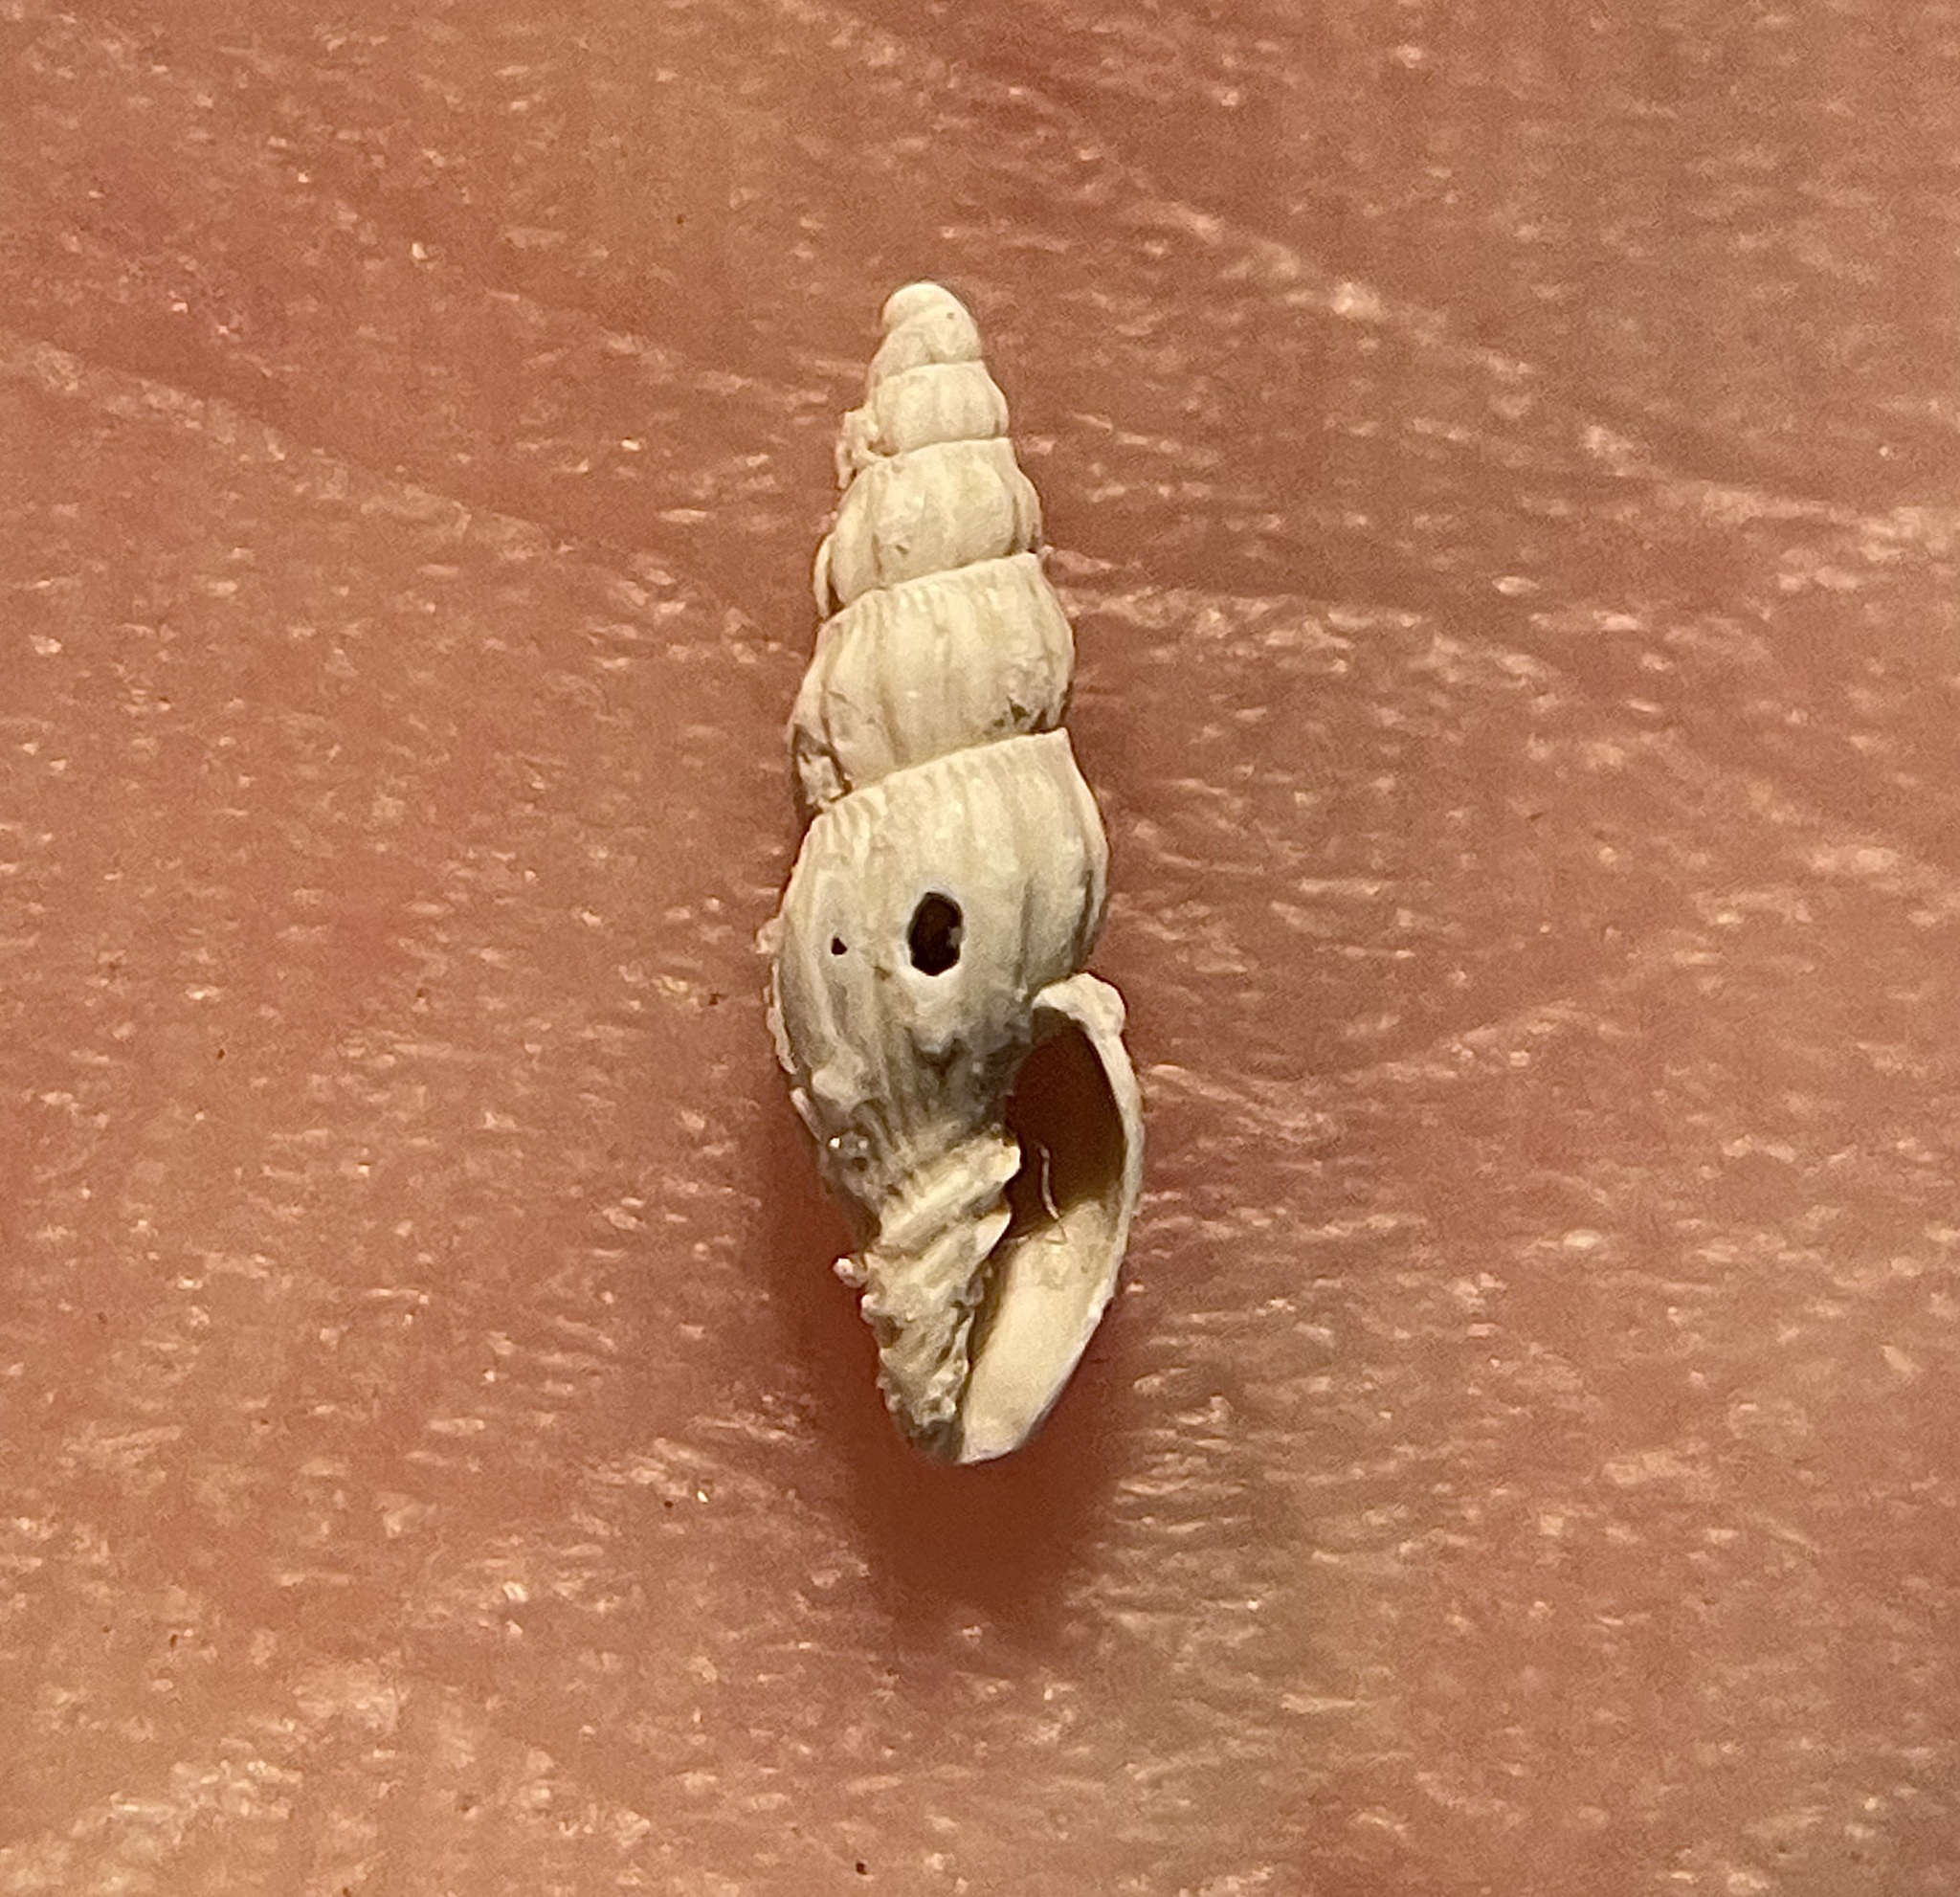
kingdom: Animalia
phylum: Mollusca
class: Gastropoda
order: Neogastropoda
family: Costellariidae
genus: Atlantilux
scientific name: Atlantilux exigua
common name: Meagre miter
